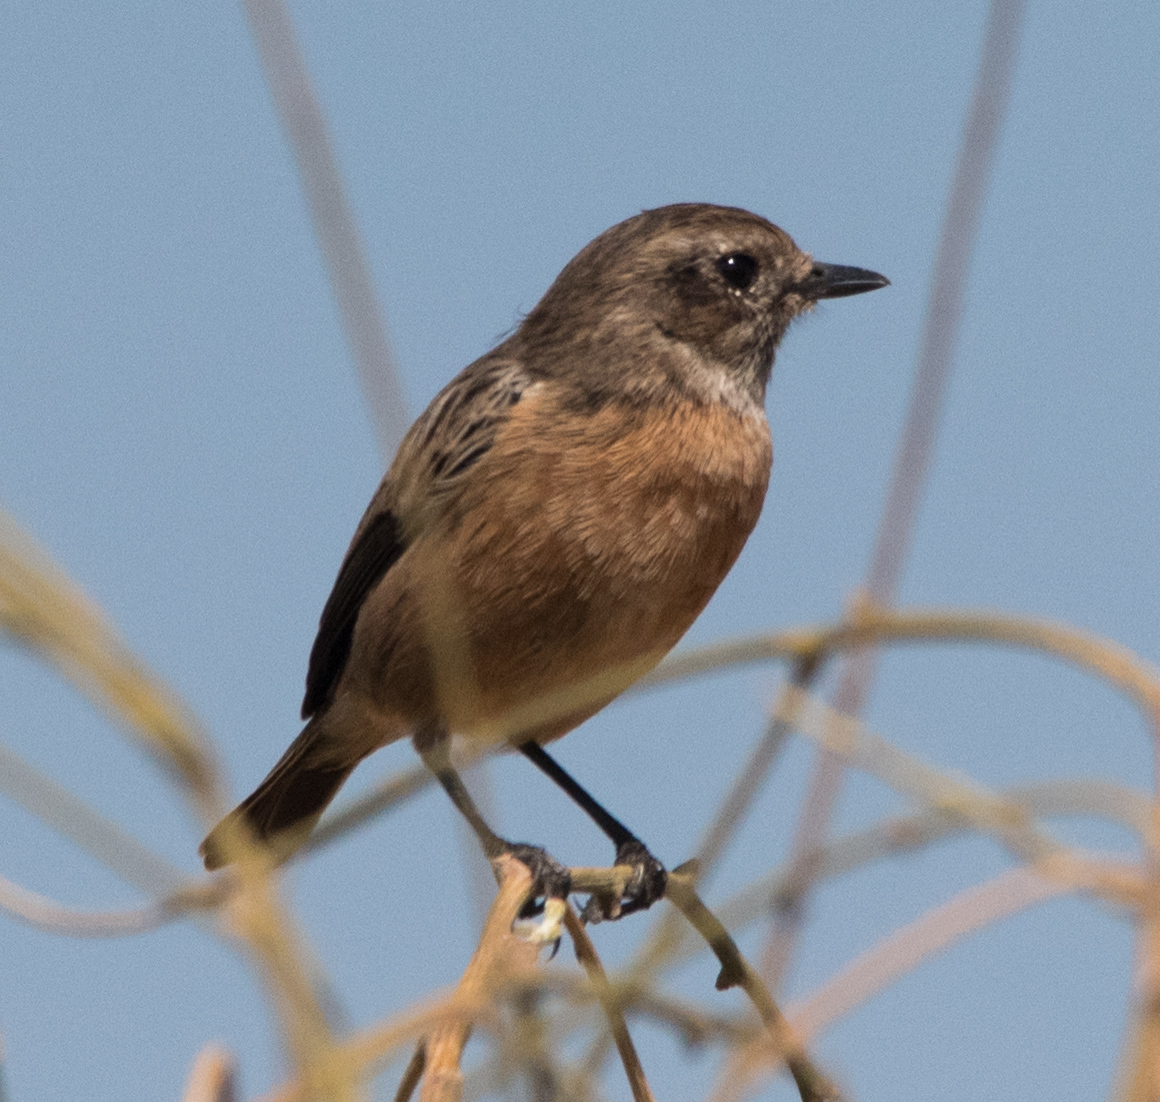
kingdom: Animalia
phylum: Chordata
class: Aves
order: Passeriformes
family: Muscicapidae
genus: Saxicola
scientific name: Saxicola rubicola
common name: European stonechat
